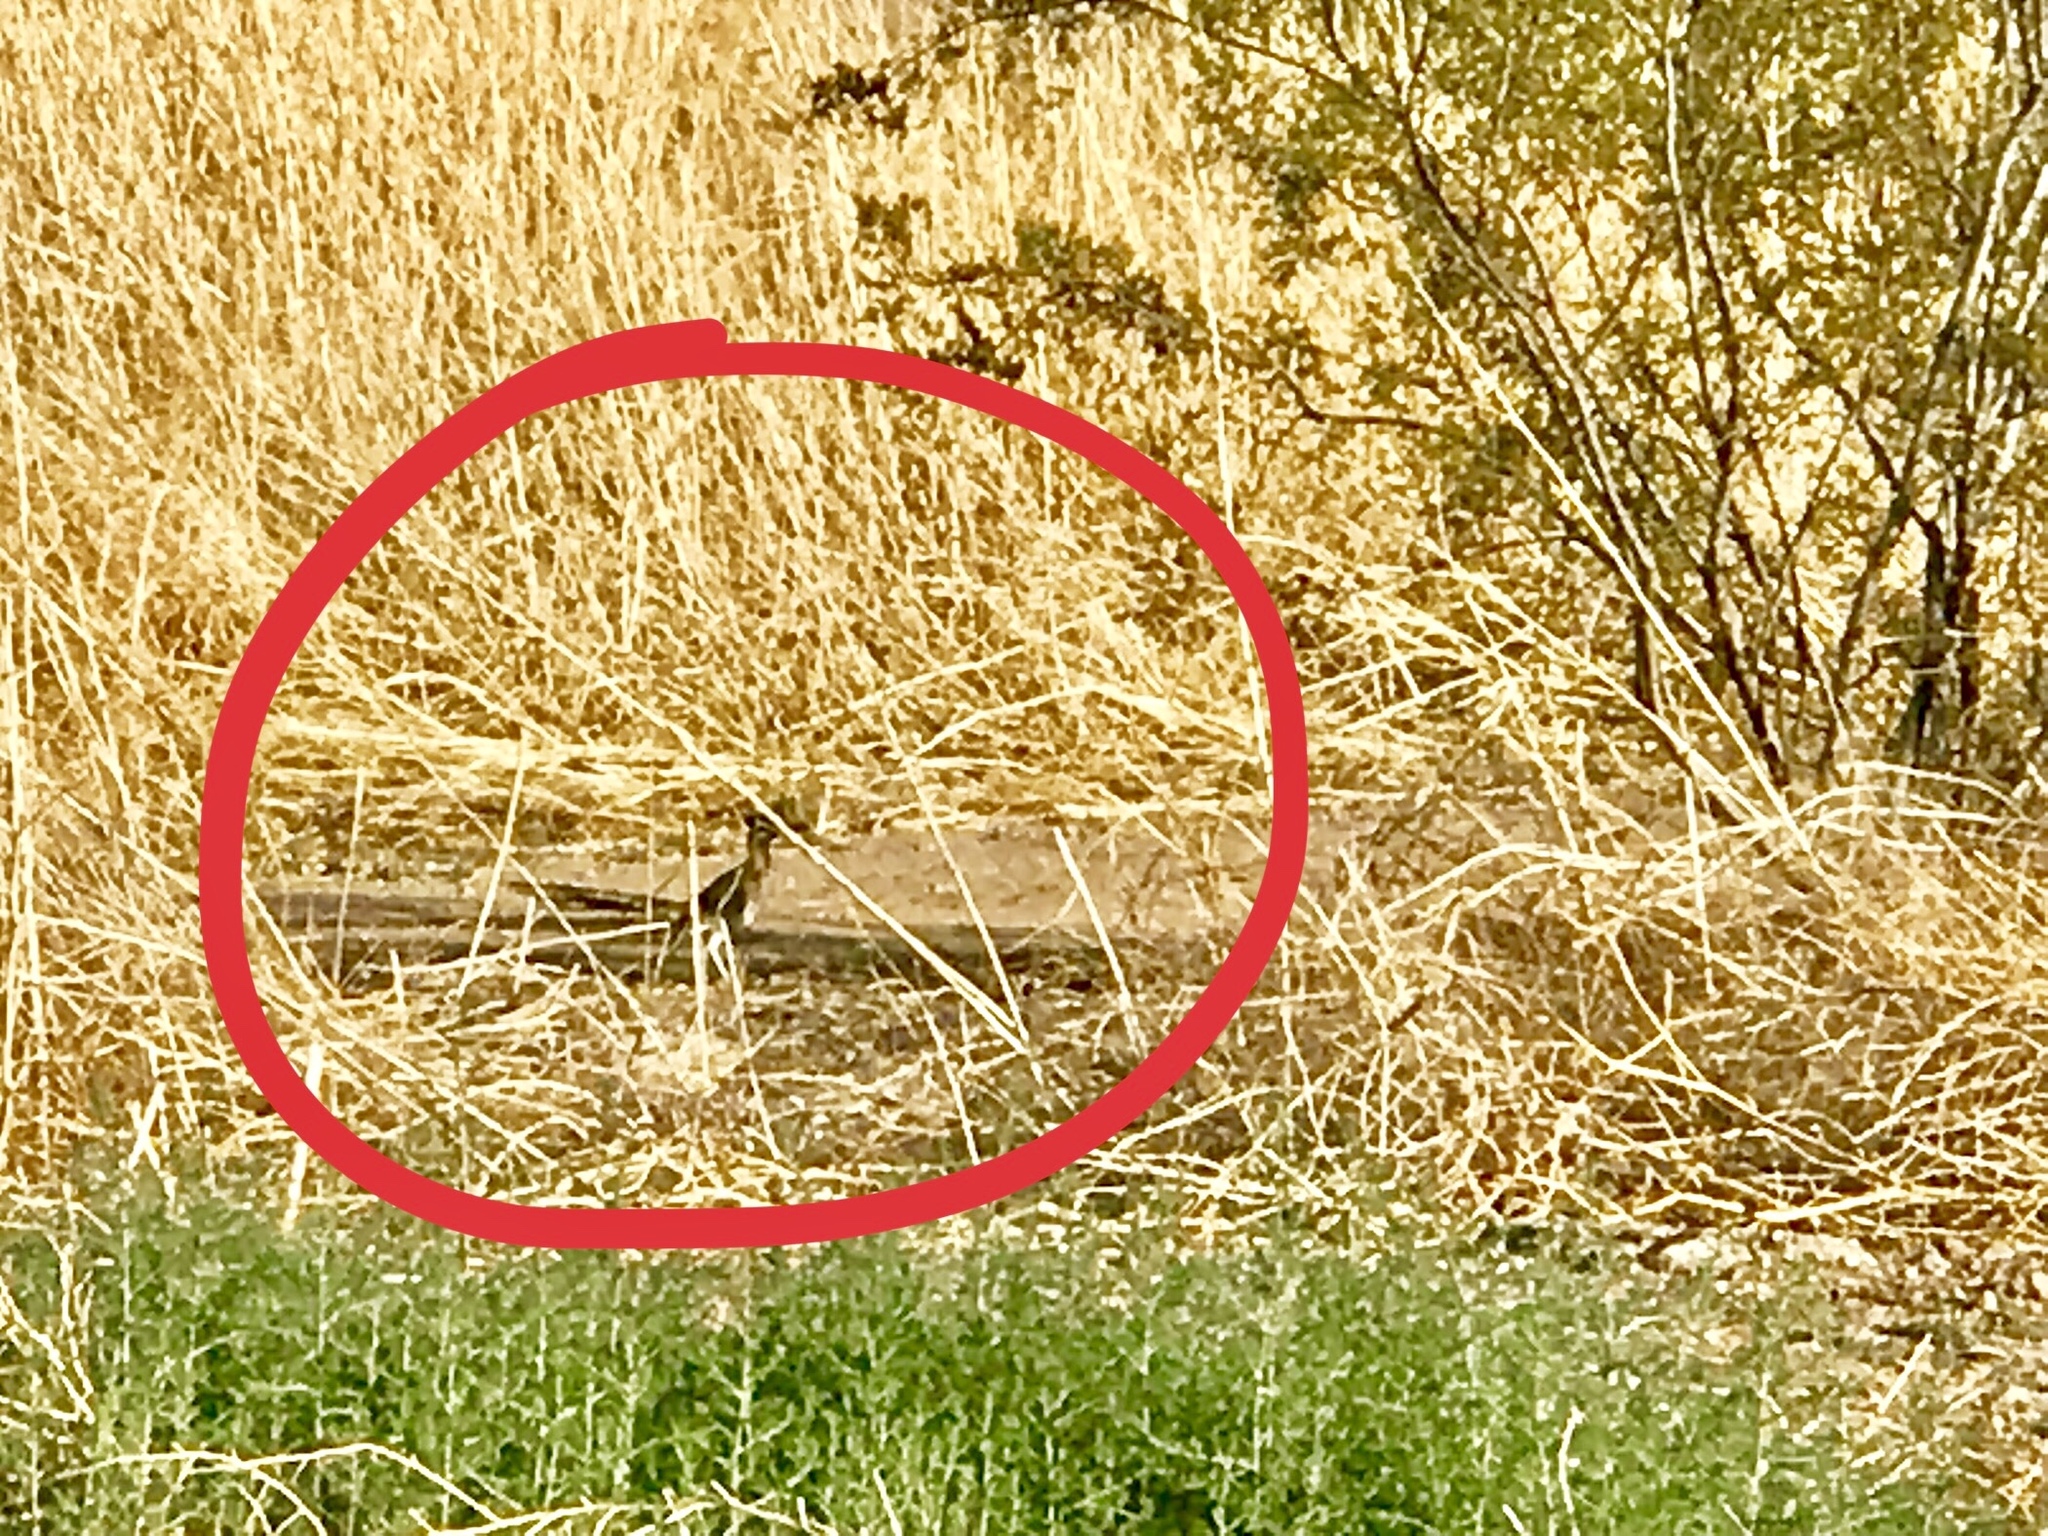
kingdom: Animalia
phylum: Chordata
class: Aves
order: Cuculiformes
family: Cuculidae
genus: Geococcyx
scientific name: Geococcyx californianus
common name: Greater roadrunner
